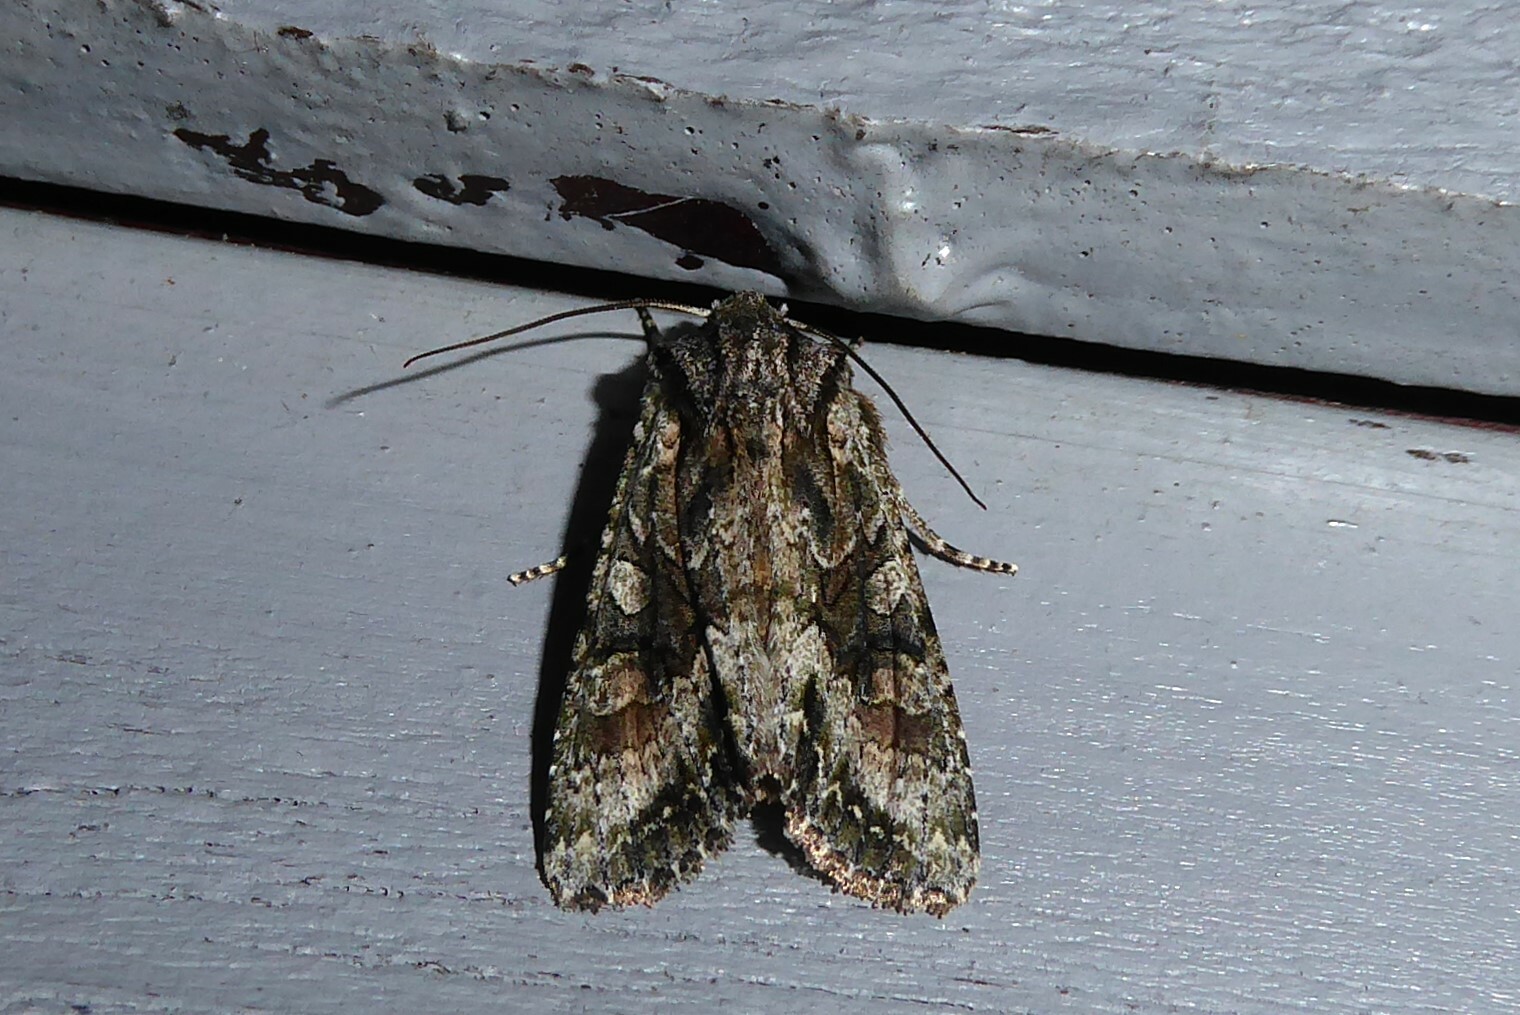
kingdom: Animalia
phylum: Arthropoda
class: Insecta
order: Lepidoptera
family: Noctuidae
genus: Ichneutica
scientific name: Ichneutica mutans
